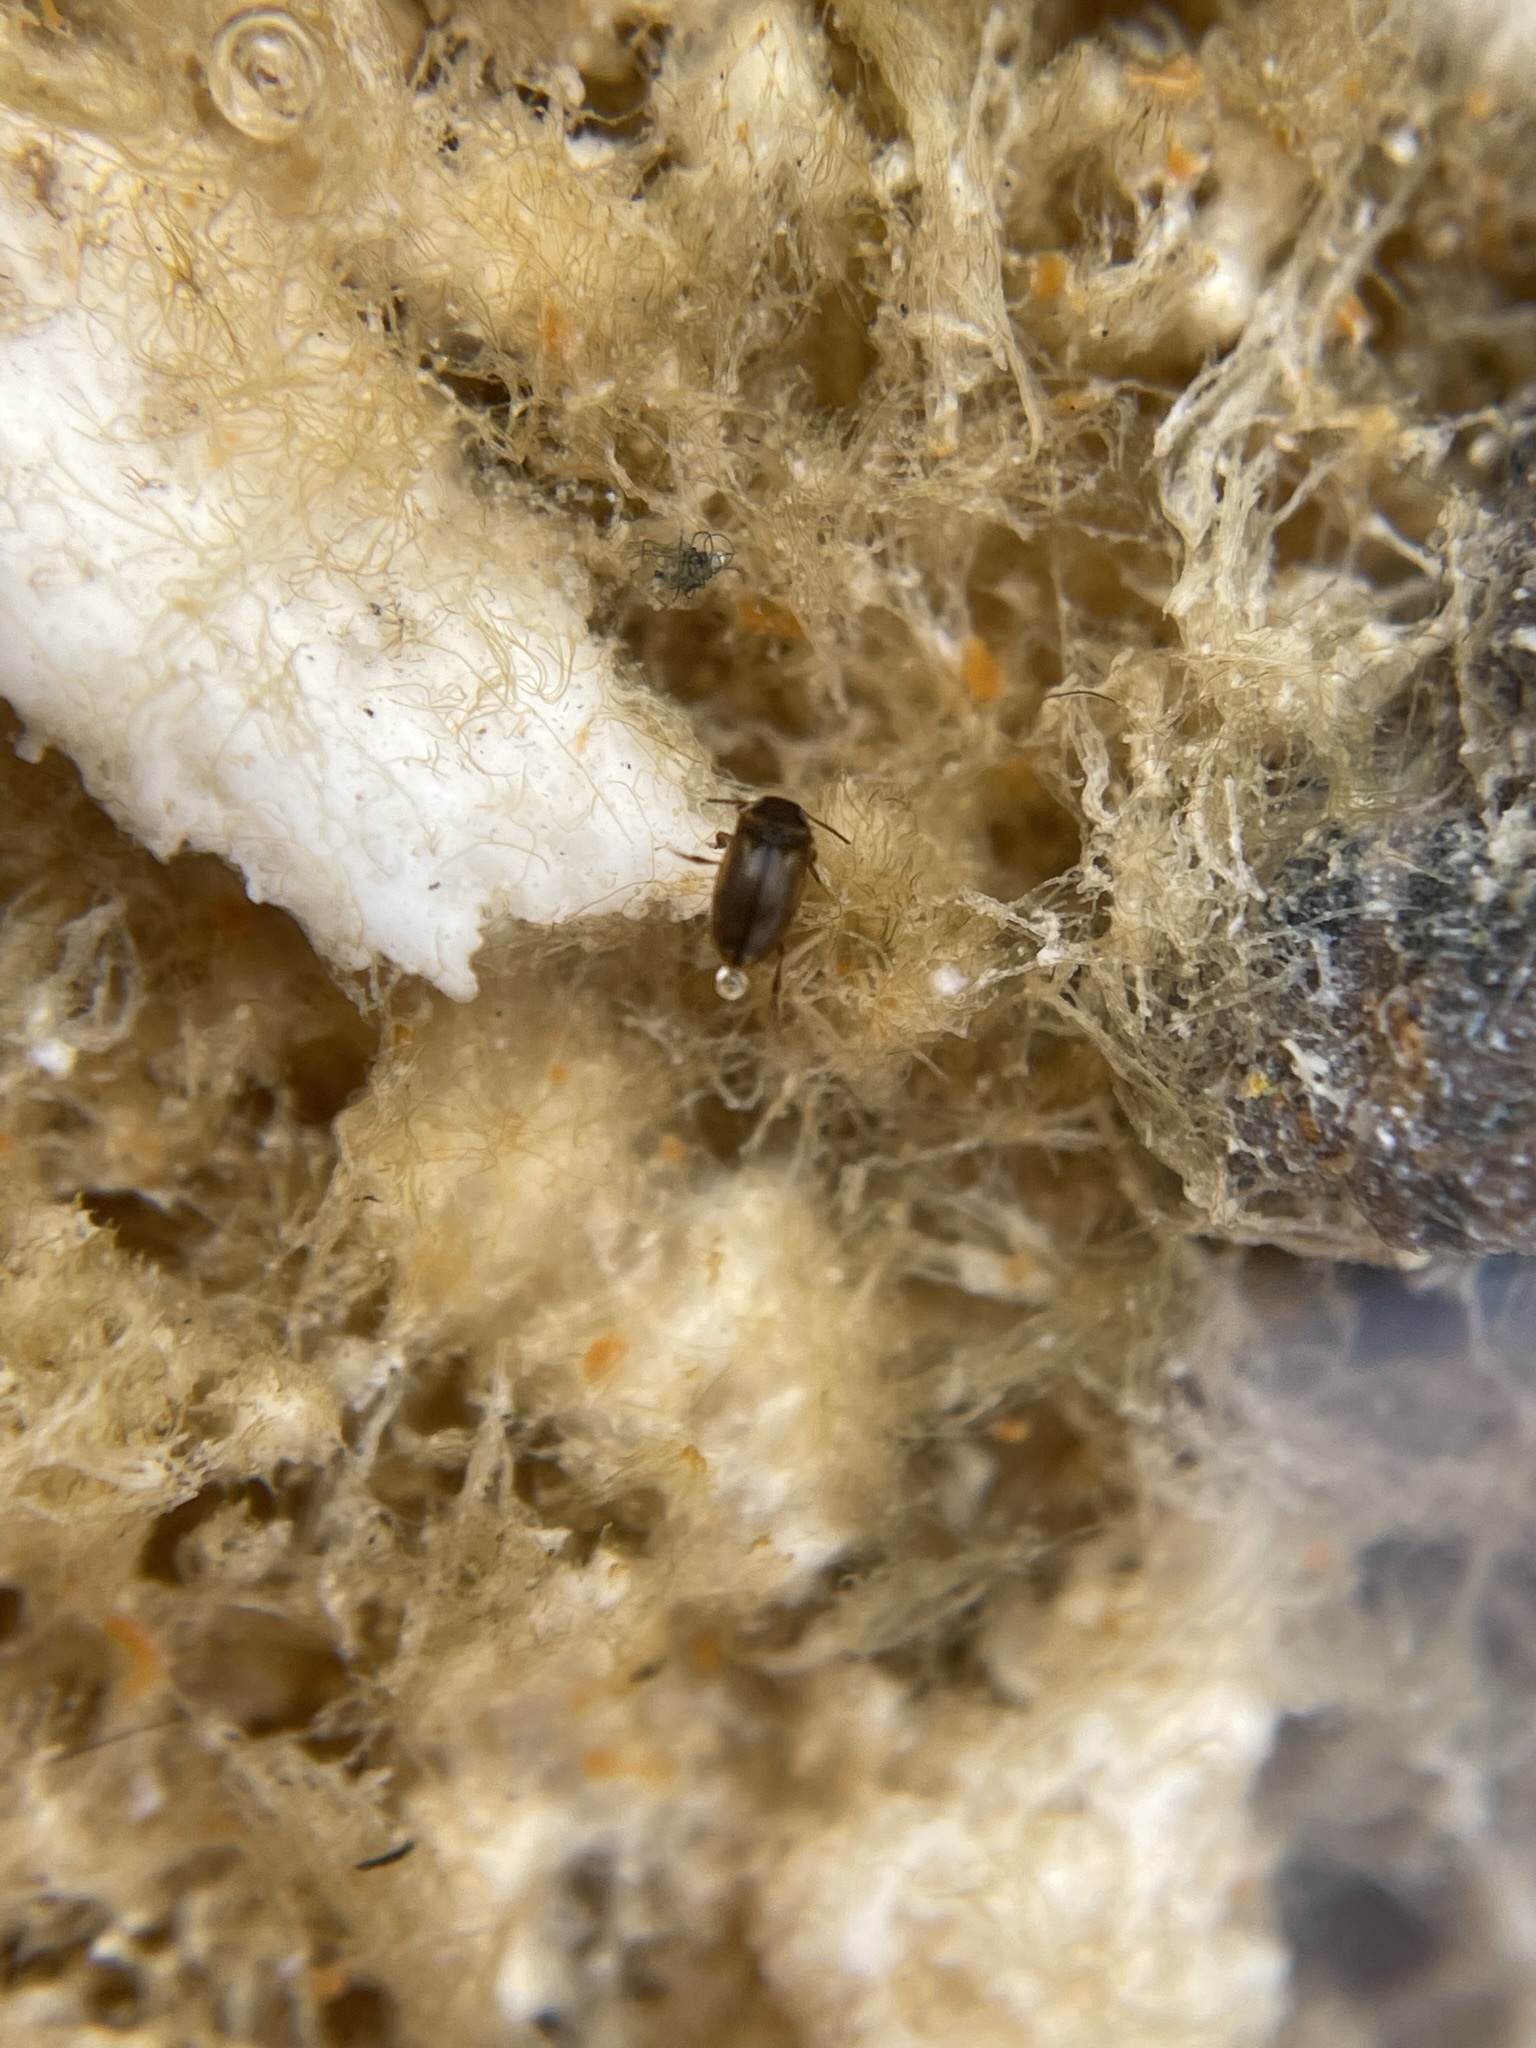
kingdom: Animalia
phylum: Arthropoda
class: Insecta
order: Coleoptera
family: Dytiscidae
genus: Liodessus
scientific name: Liodessus obscurellus
